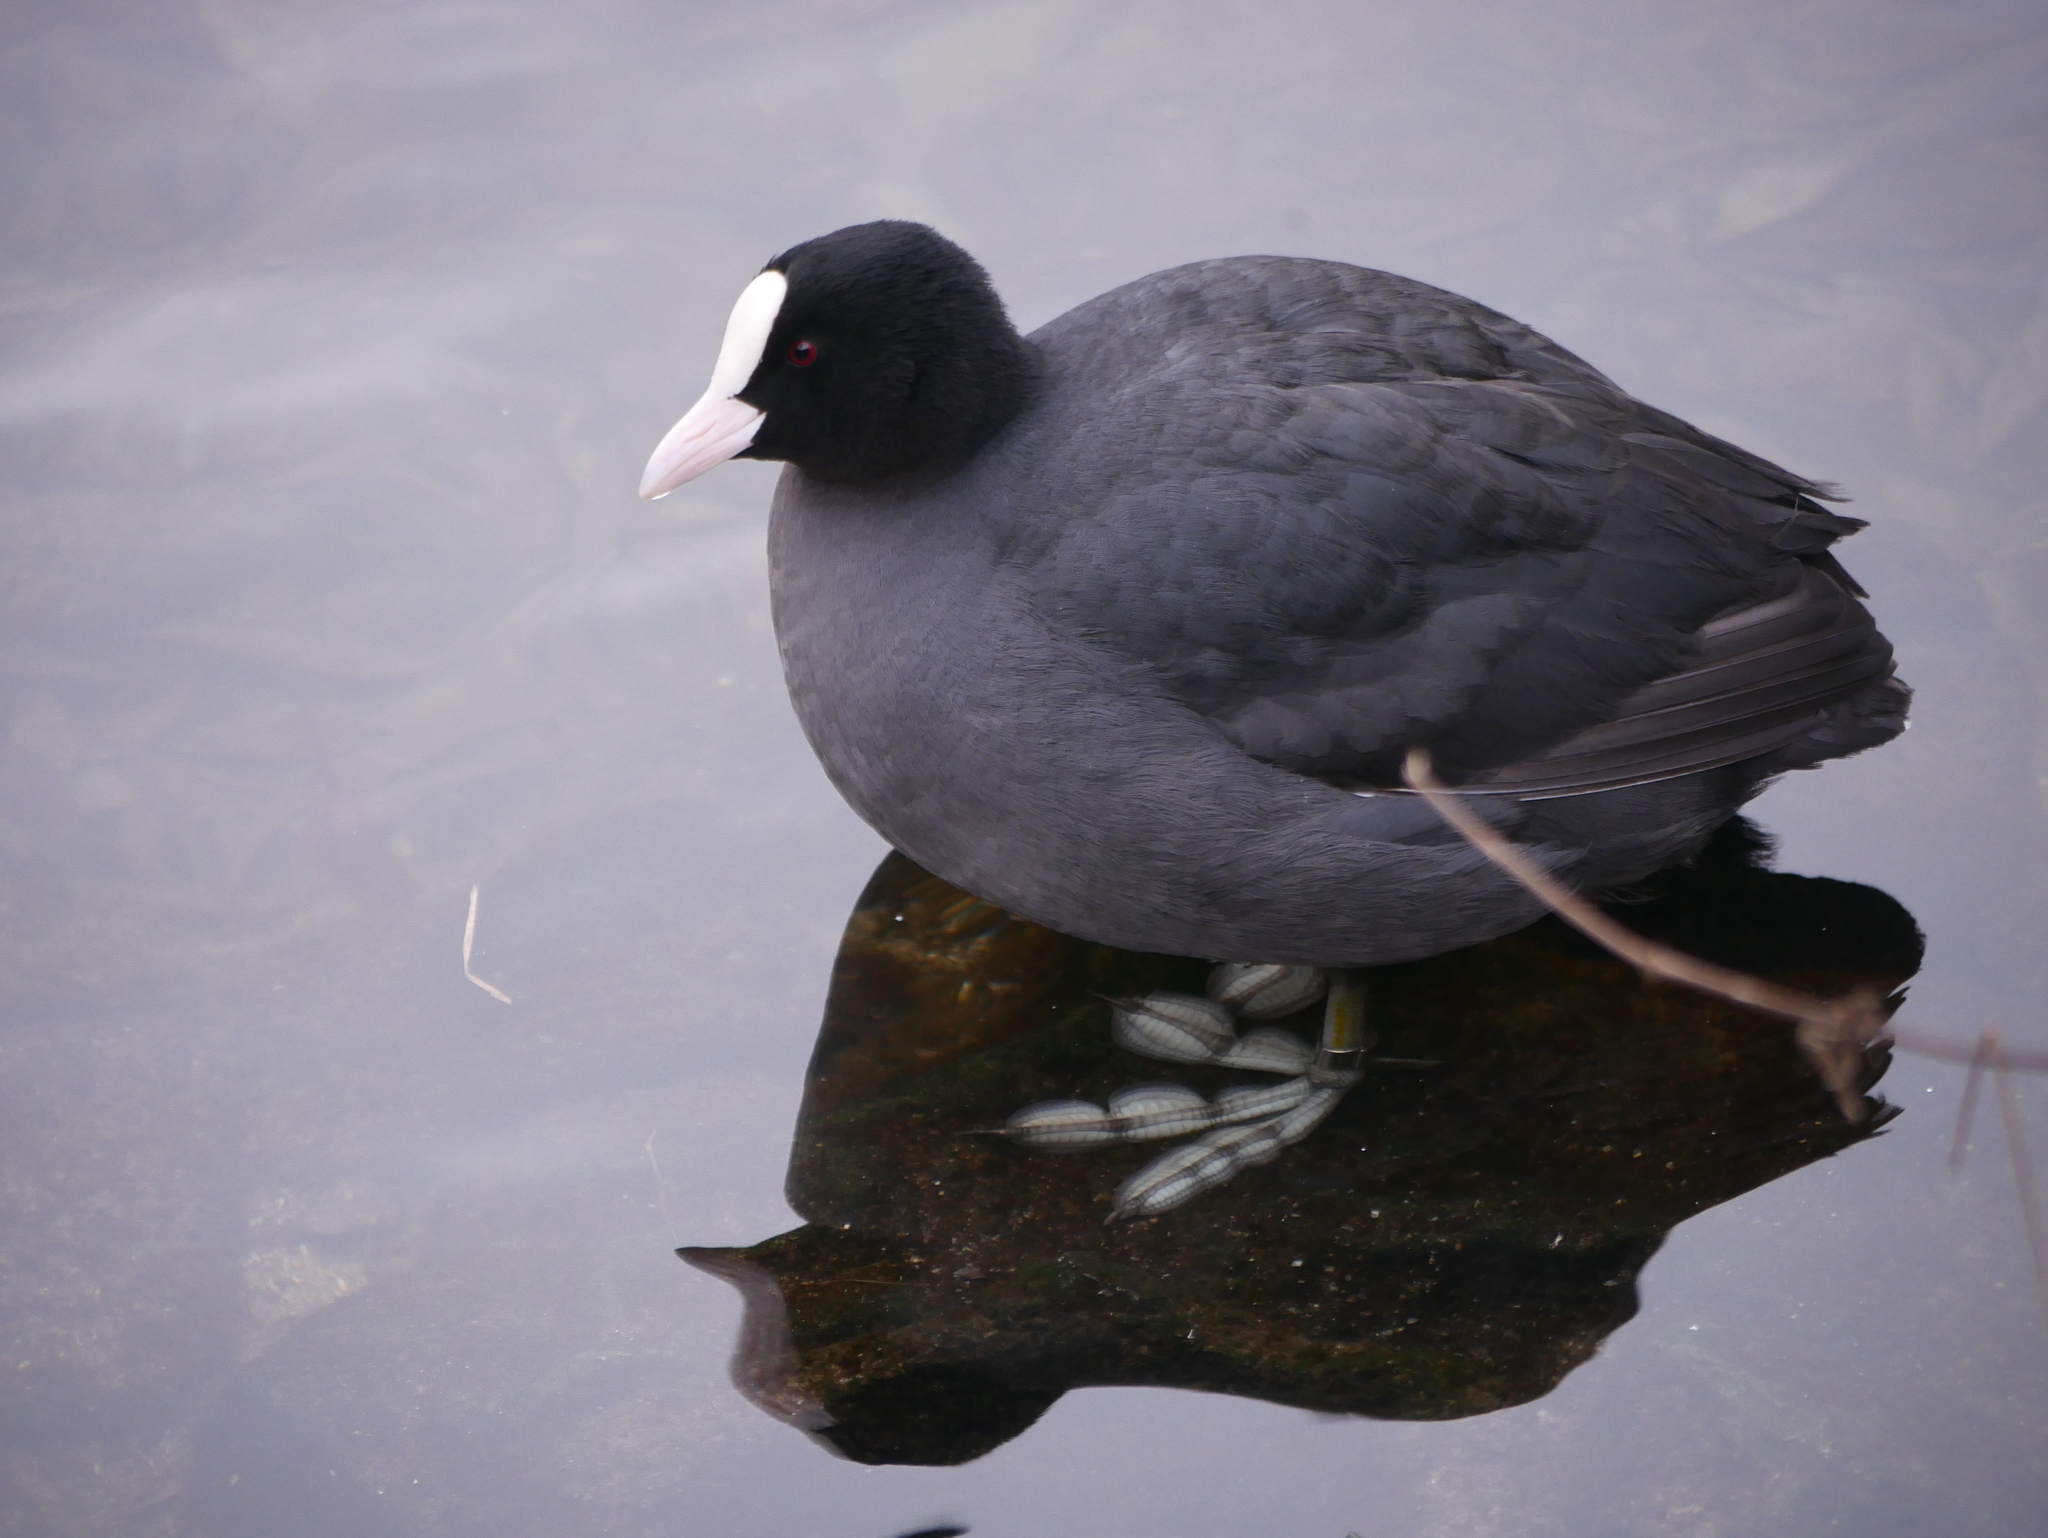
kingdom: Animalia
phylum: Chordata
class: Aves
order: Gruiformes
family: Rallidae
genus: Fulica
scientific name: Fulica atra
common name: Eurasian coot
